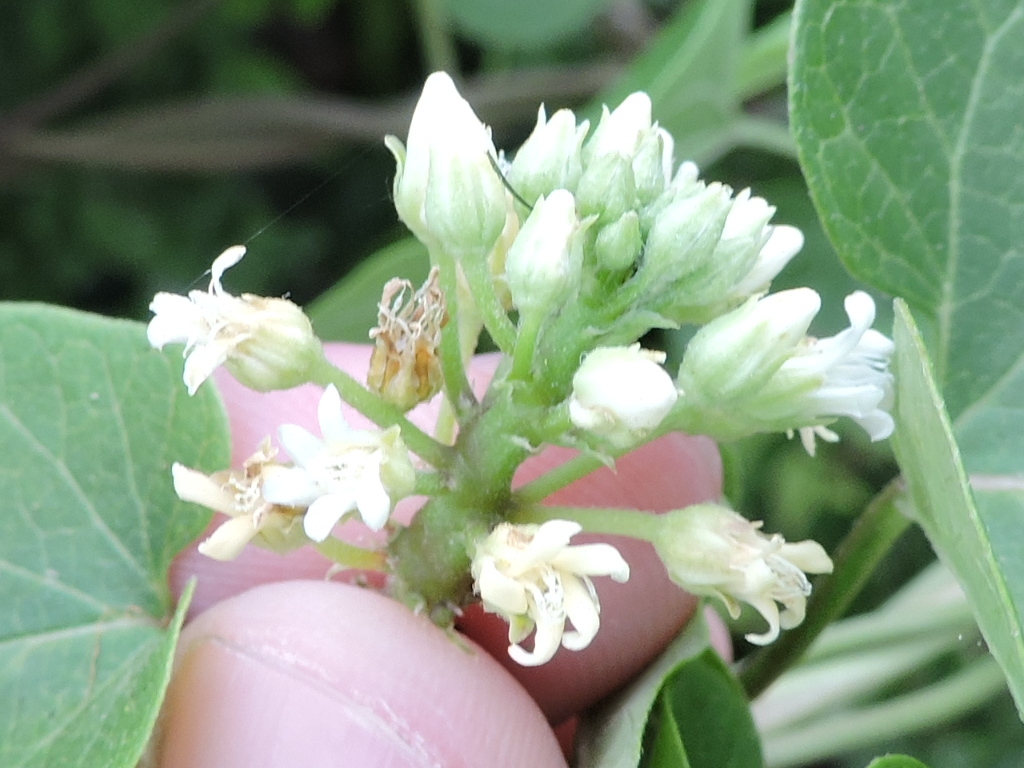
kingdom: Plantae
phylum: Tracheophyta
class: Magnoliopsida
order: Gentianales
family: Apocynaceae
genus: Cynanchum
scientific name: Cynanchum laeve
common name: Sandvine
